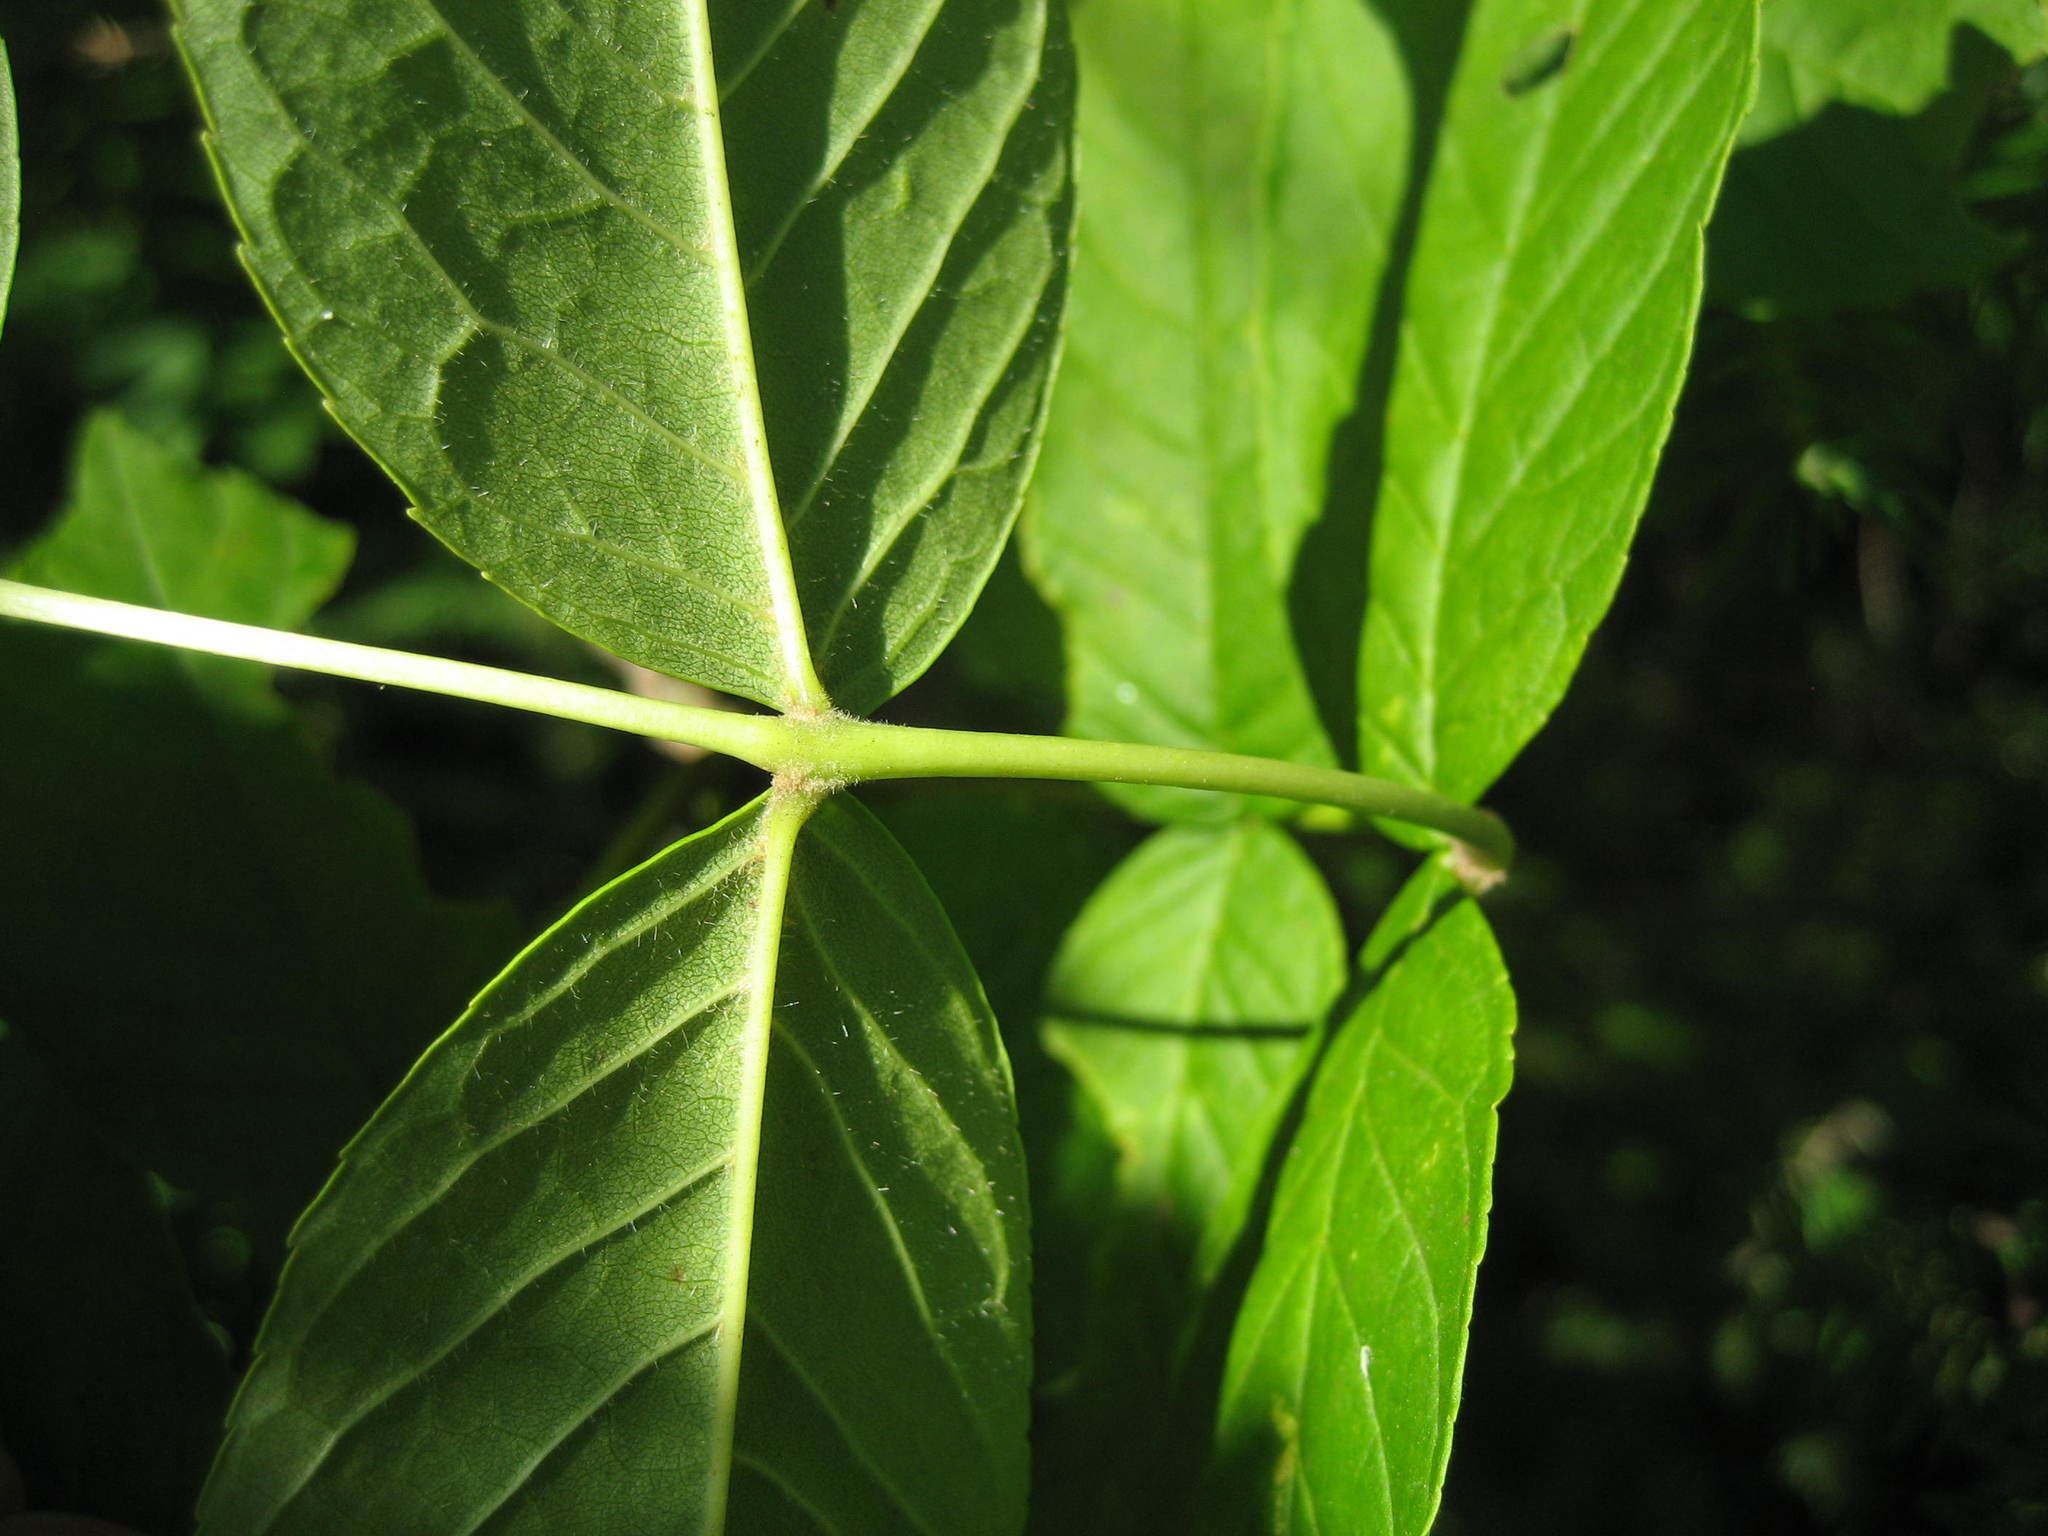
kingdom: Plantae
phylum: Tracheophyta
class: Magnoliopsida
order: Lamiales
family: Oleaceae
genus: Fraxinus
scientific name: Fraxinus nigra
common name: Black ash
